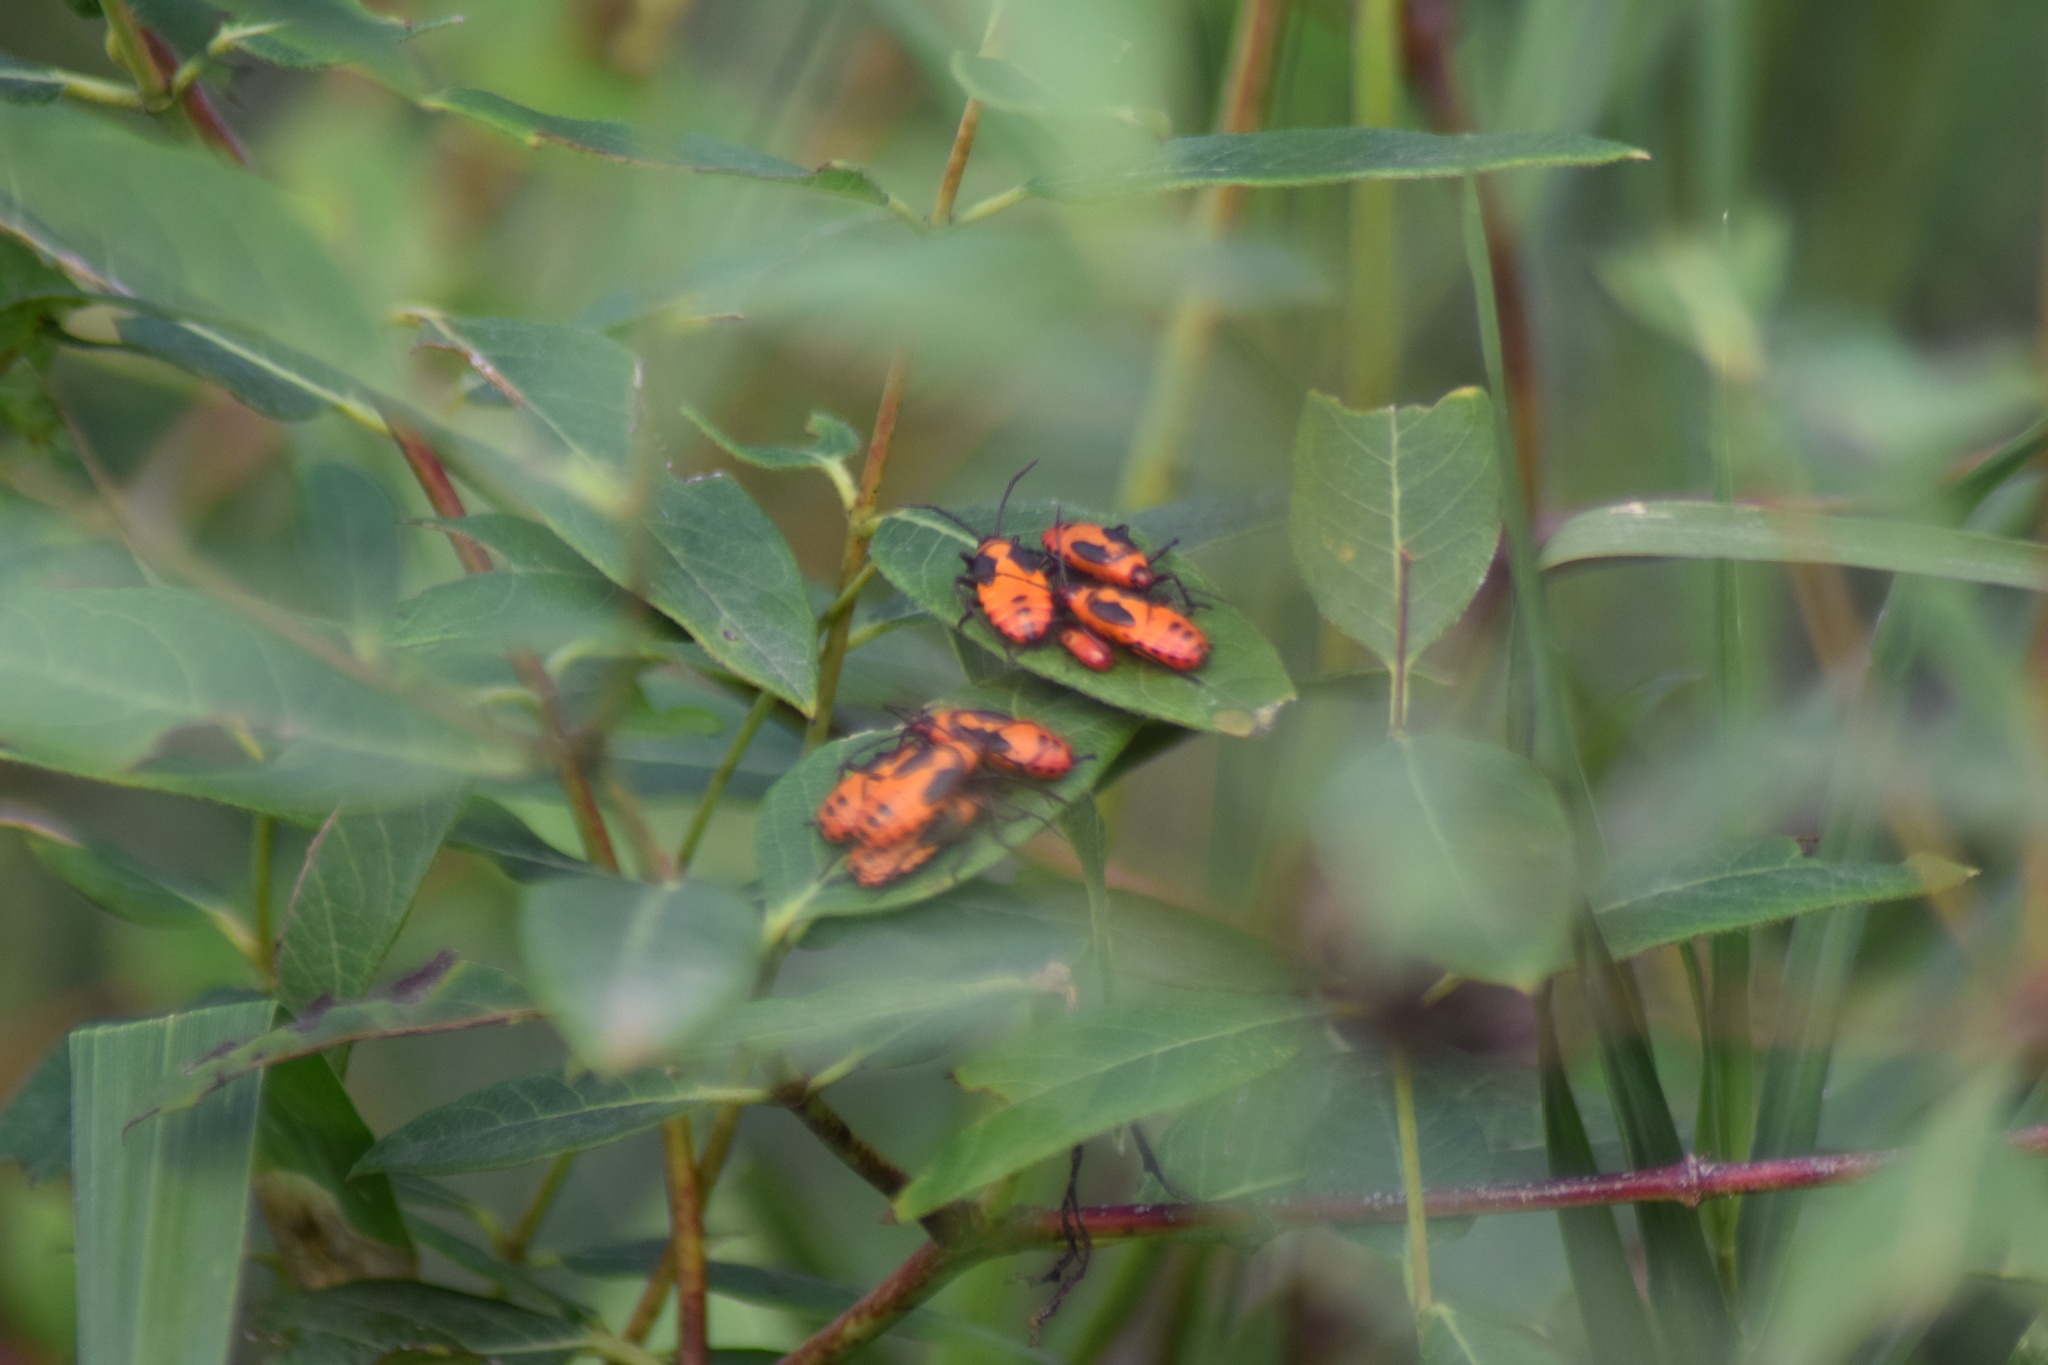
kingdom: Animalia
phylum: Arthropoda
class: Insecta
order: Hemiptera
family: Lygaeidae
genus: Oncopeltus
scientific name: Oncopeltus fasciatus
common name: Large milkweed bug
